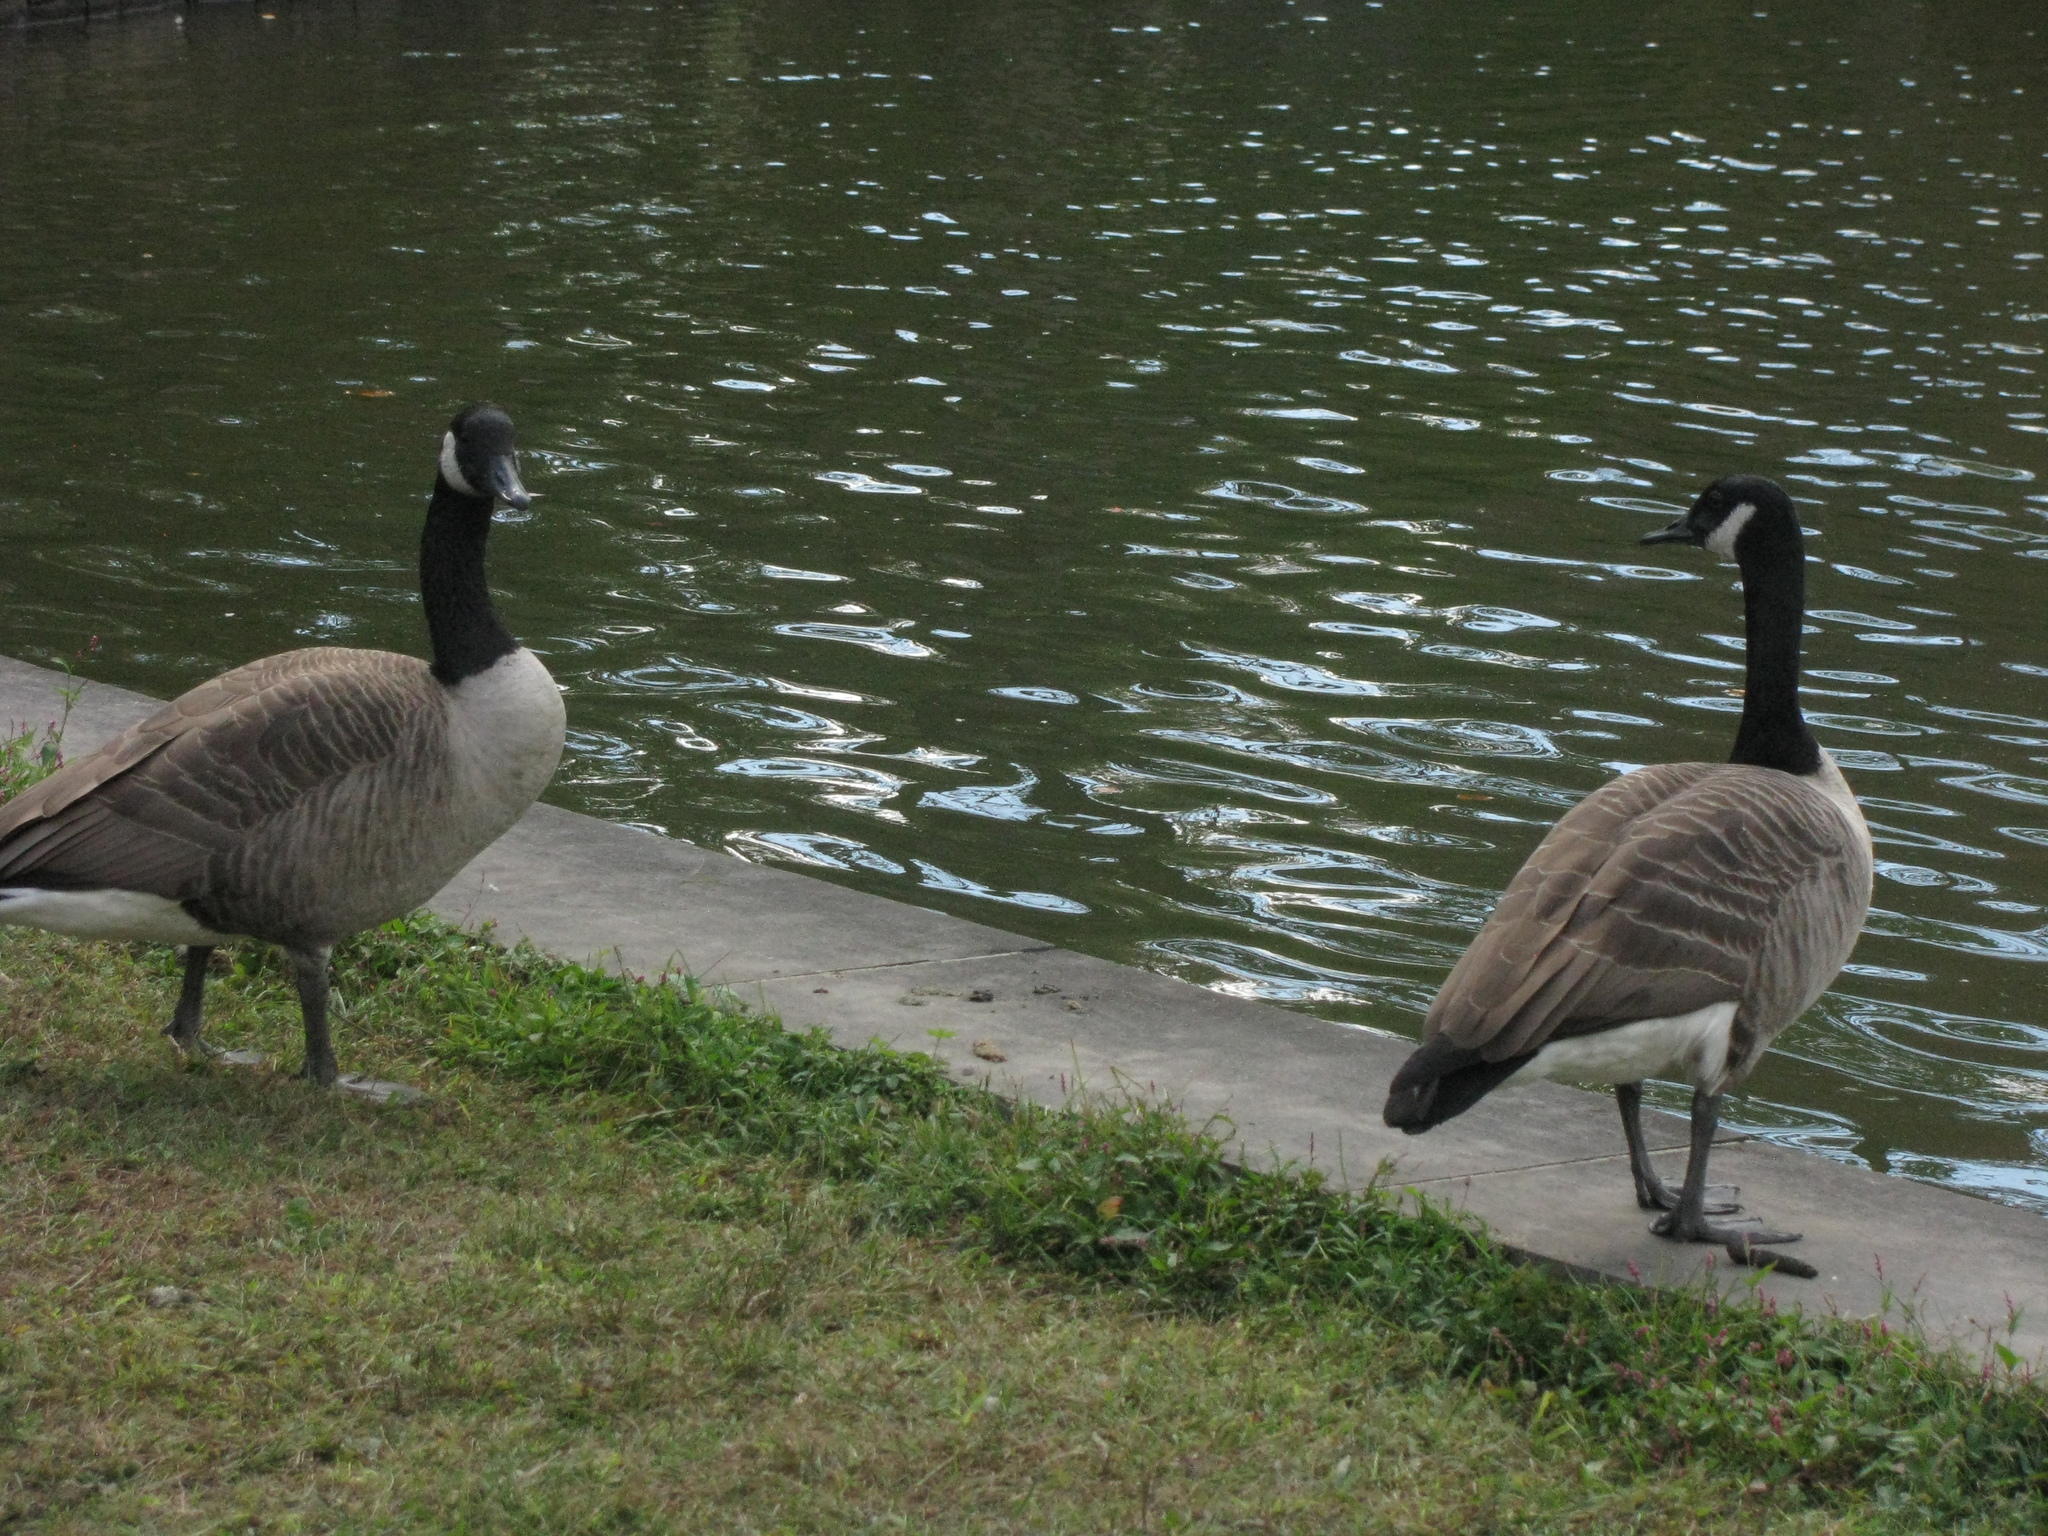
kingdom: Animalia
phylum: Chordata
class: Aves
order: Anseriformes
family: Anatidae
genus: Branta
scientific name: Branta canadensis
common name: Canada goose
